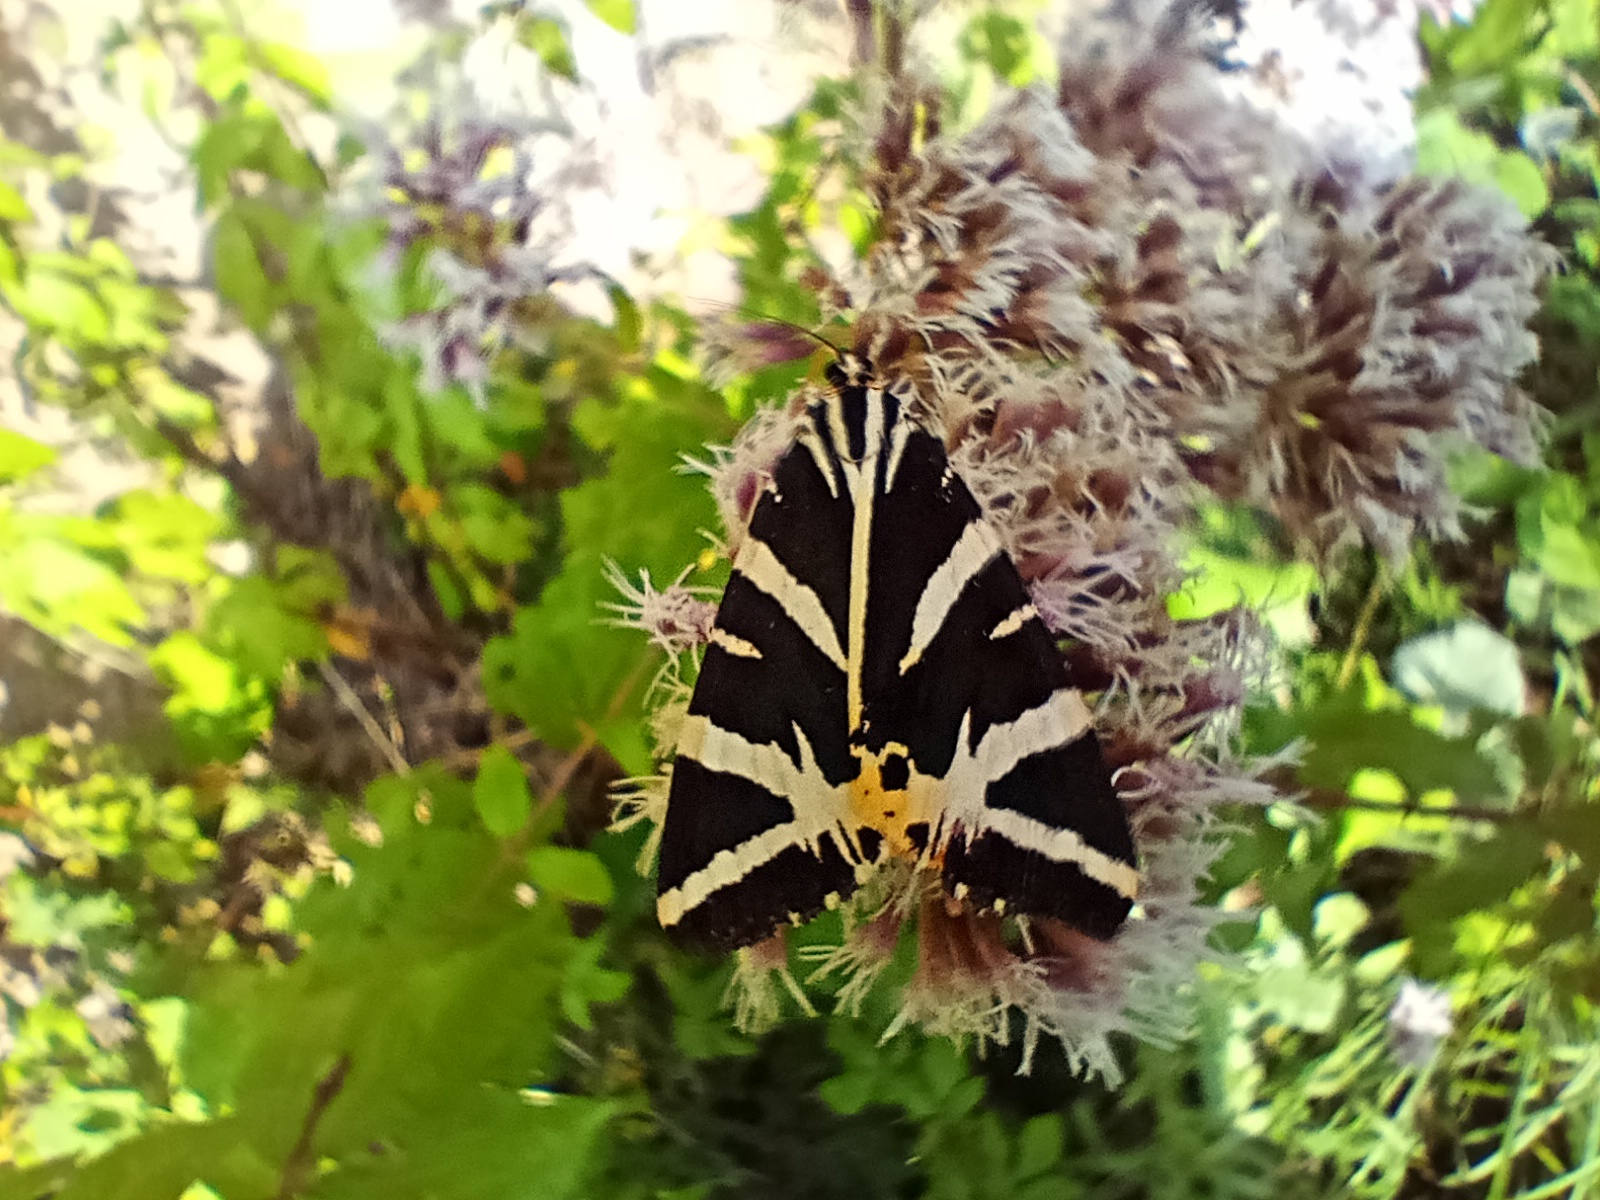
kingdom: Animalia
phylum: Arthropoda
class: Insecta
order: Lepidoptera
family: Erebidae
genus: Euplagia
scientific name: Euplagia quadripunctaria
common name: Jersey tiger
